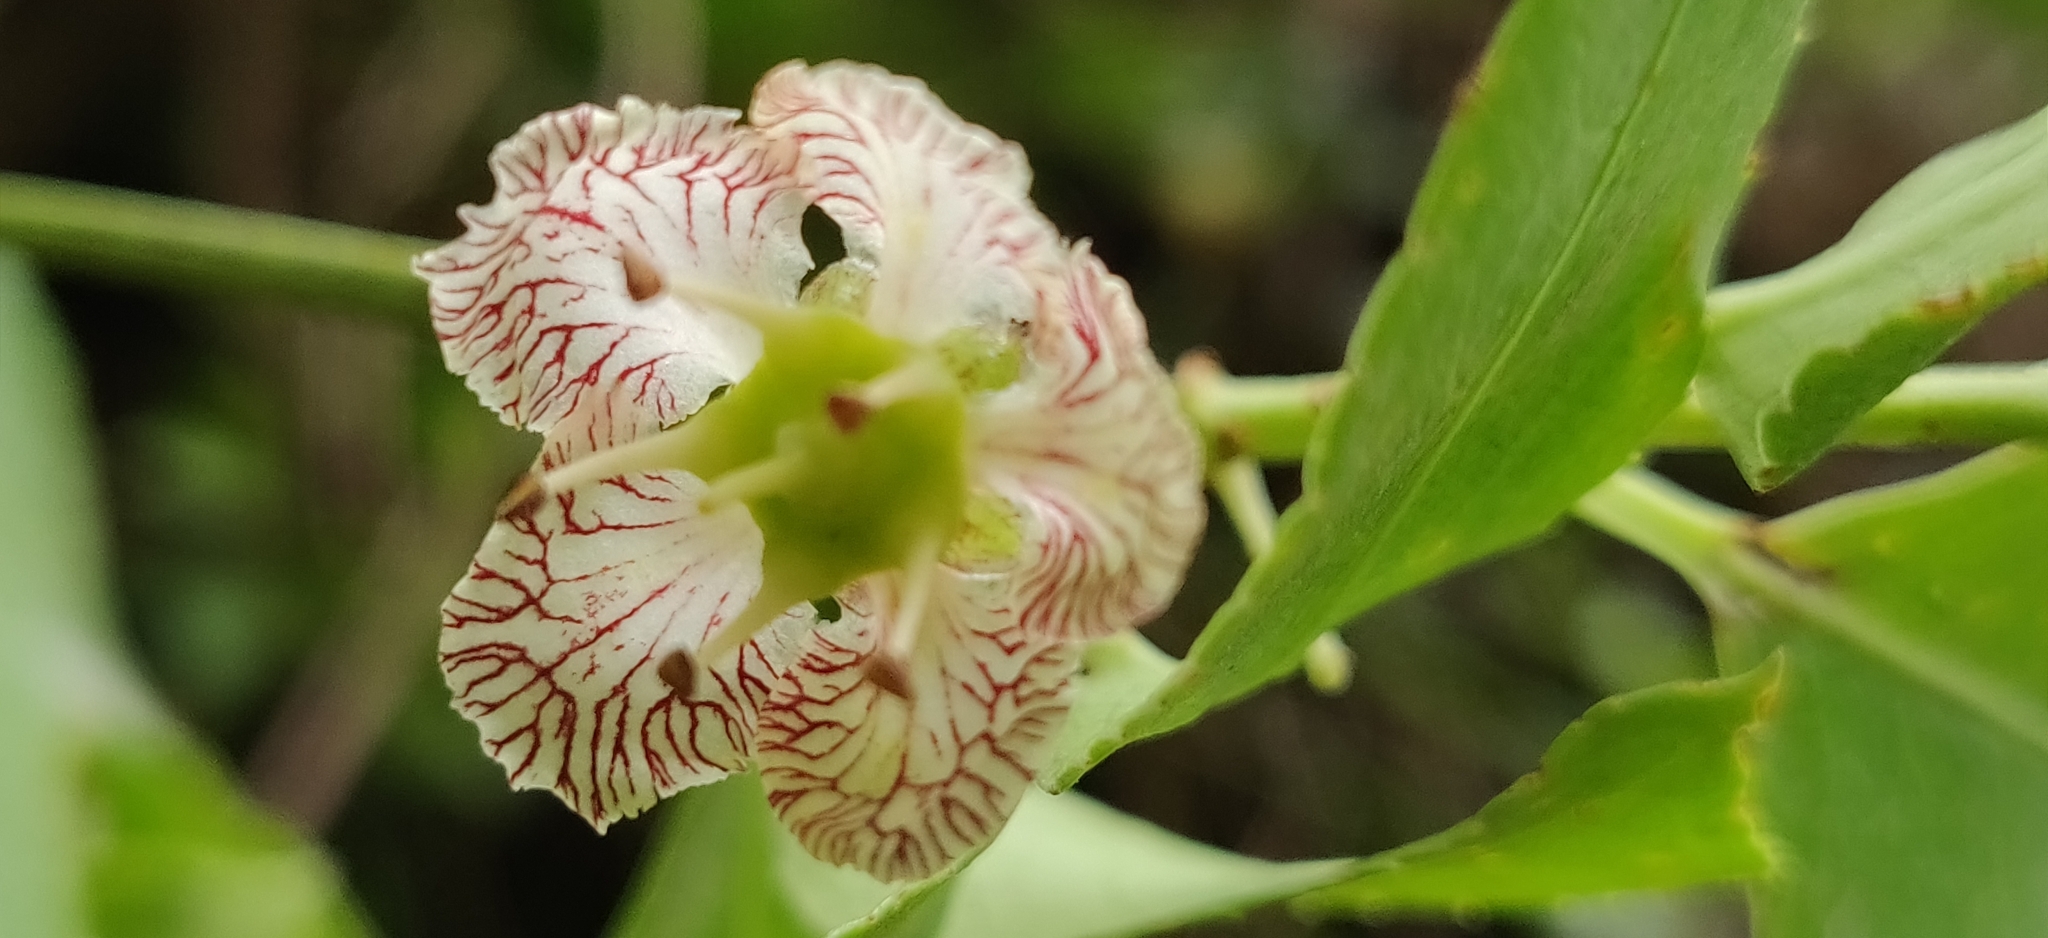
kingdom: Plantae
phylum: Tracheophyta
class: Magnoliopsida
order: Celastrales
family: Celastraceae
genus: Euonymus
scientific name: Euonymus tingens
